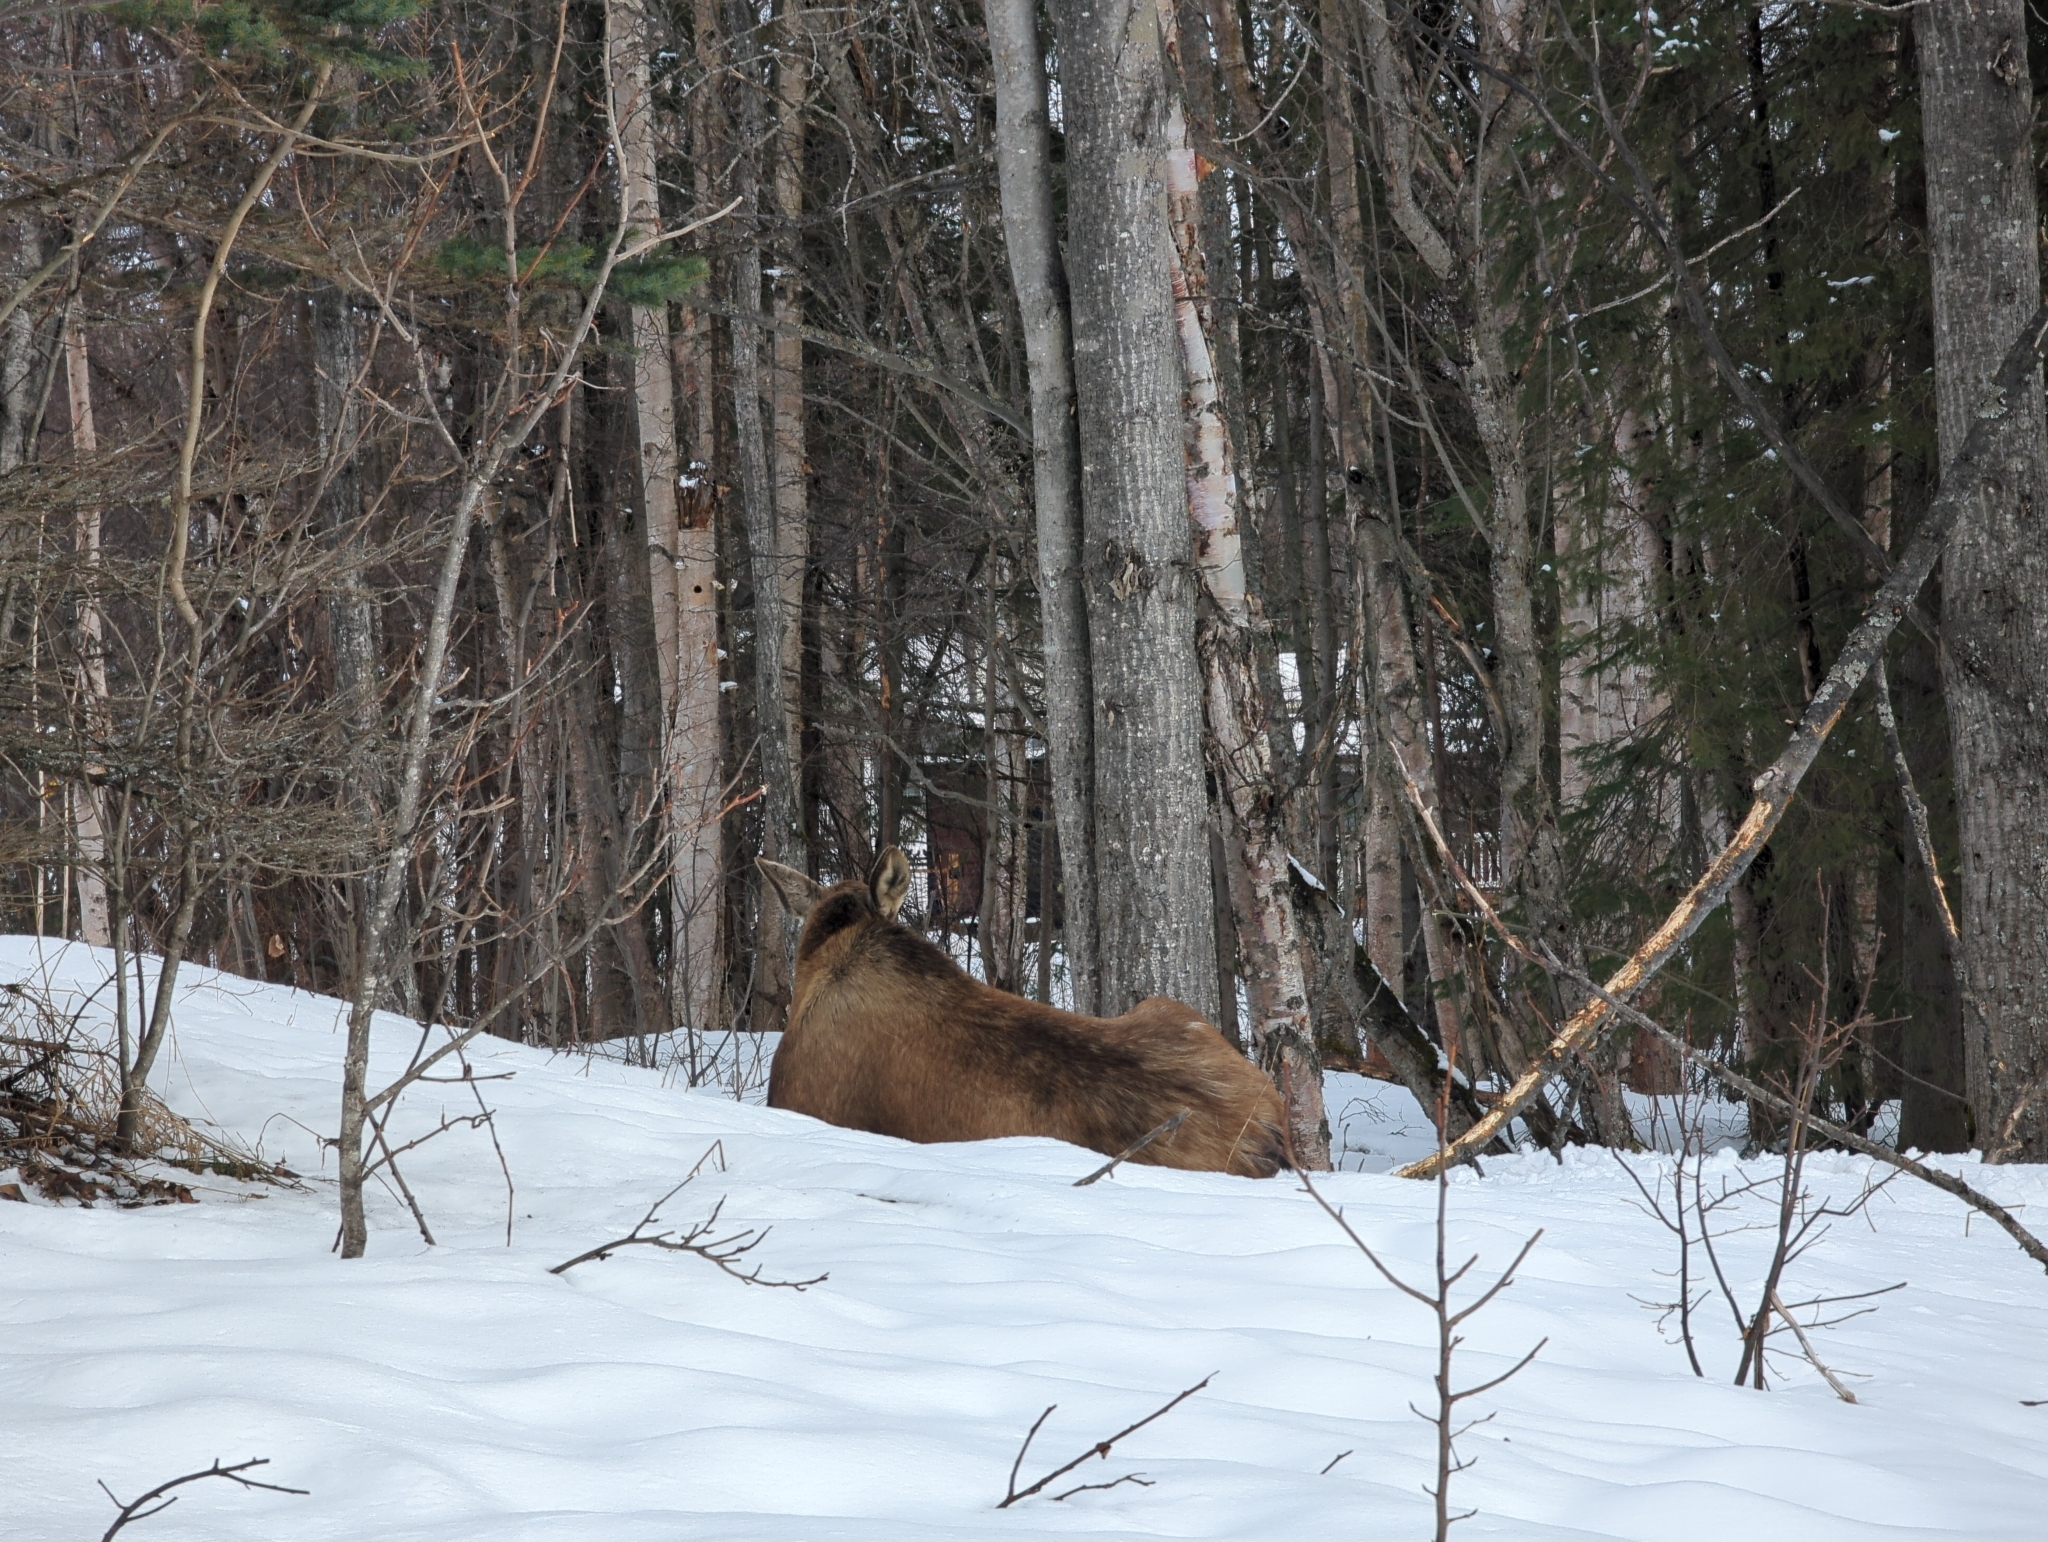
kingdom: Animalia
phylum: Chordata
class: Mammalia
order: Artiodactyla
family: Cervidae
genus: Alces
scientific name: Alces alces
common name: Moose
